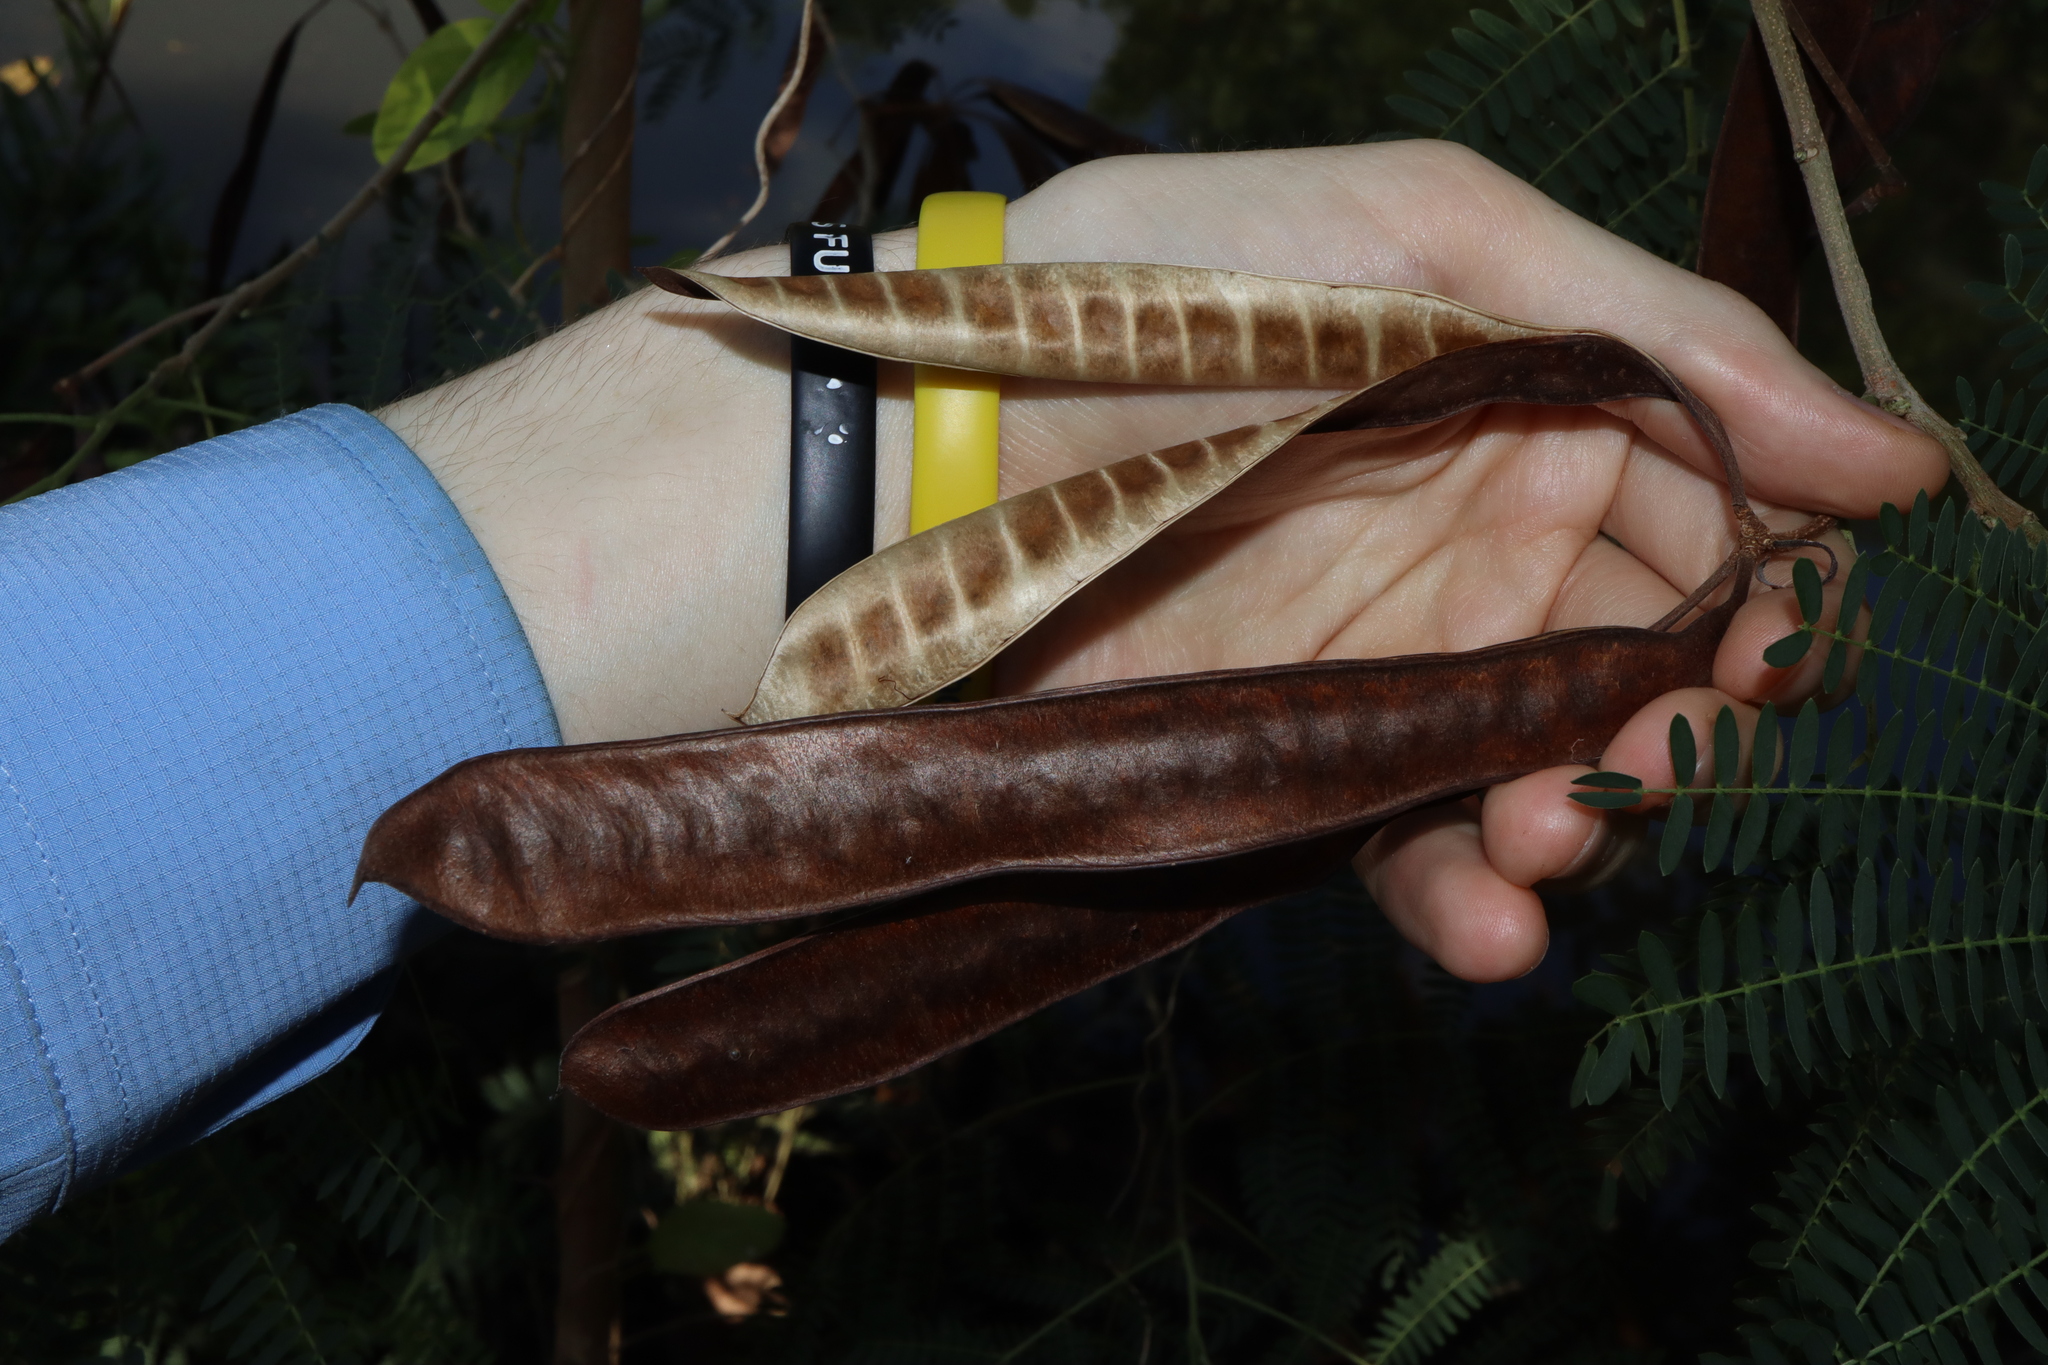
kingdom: Plantae
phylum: Tracheophyta
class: Magnoliopsida
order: Fabales
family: Fabaceae
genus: Leucaena
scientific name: Leucaena leucocephala
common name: White leadtree
